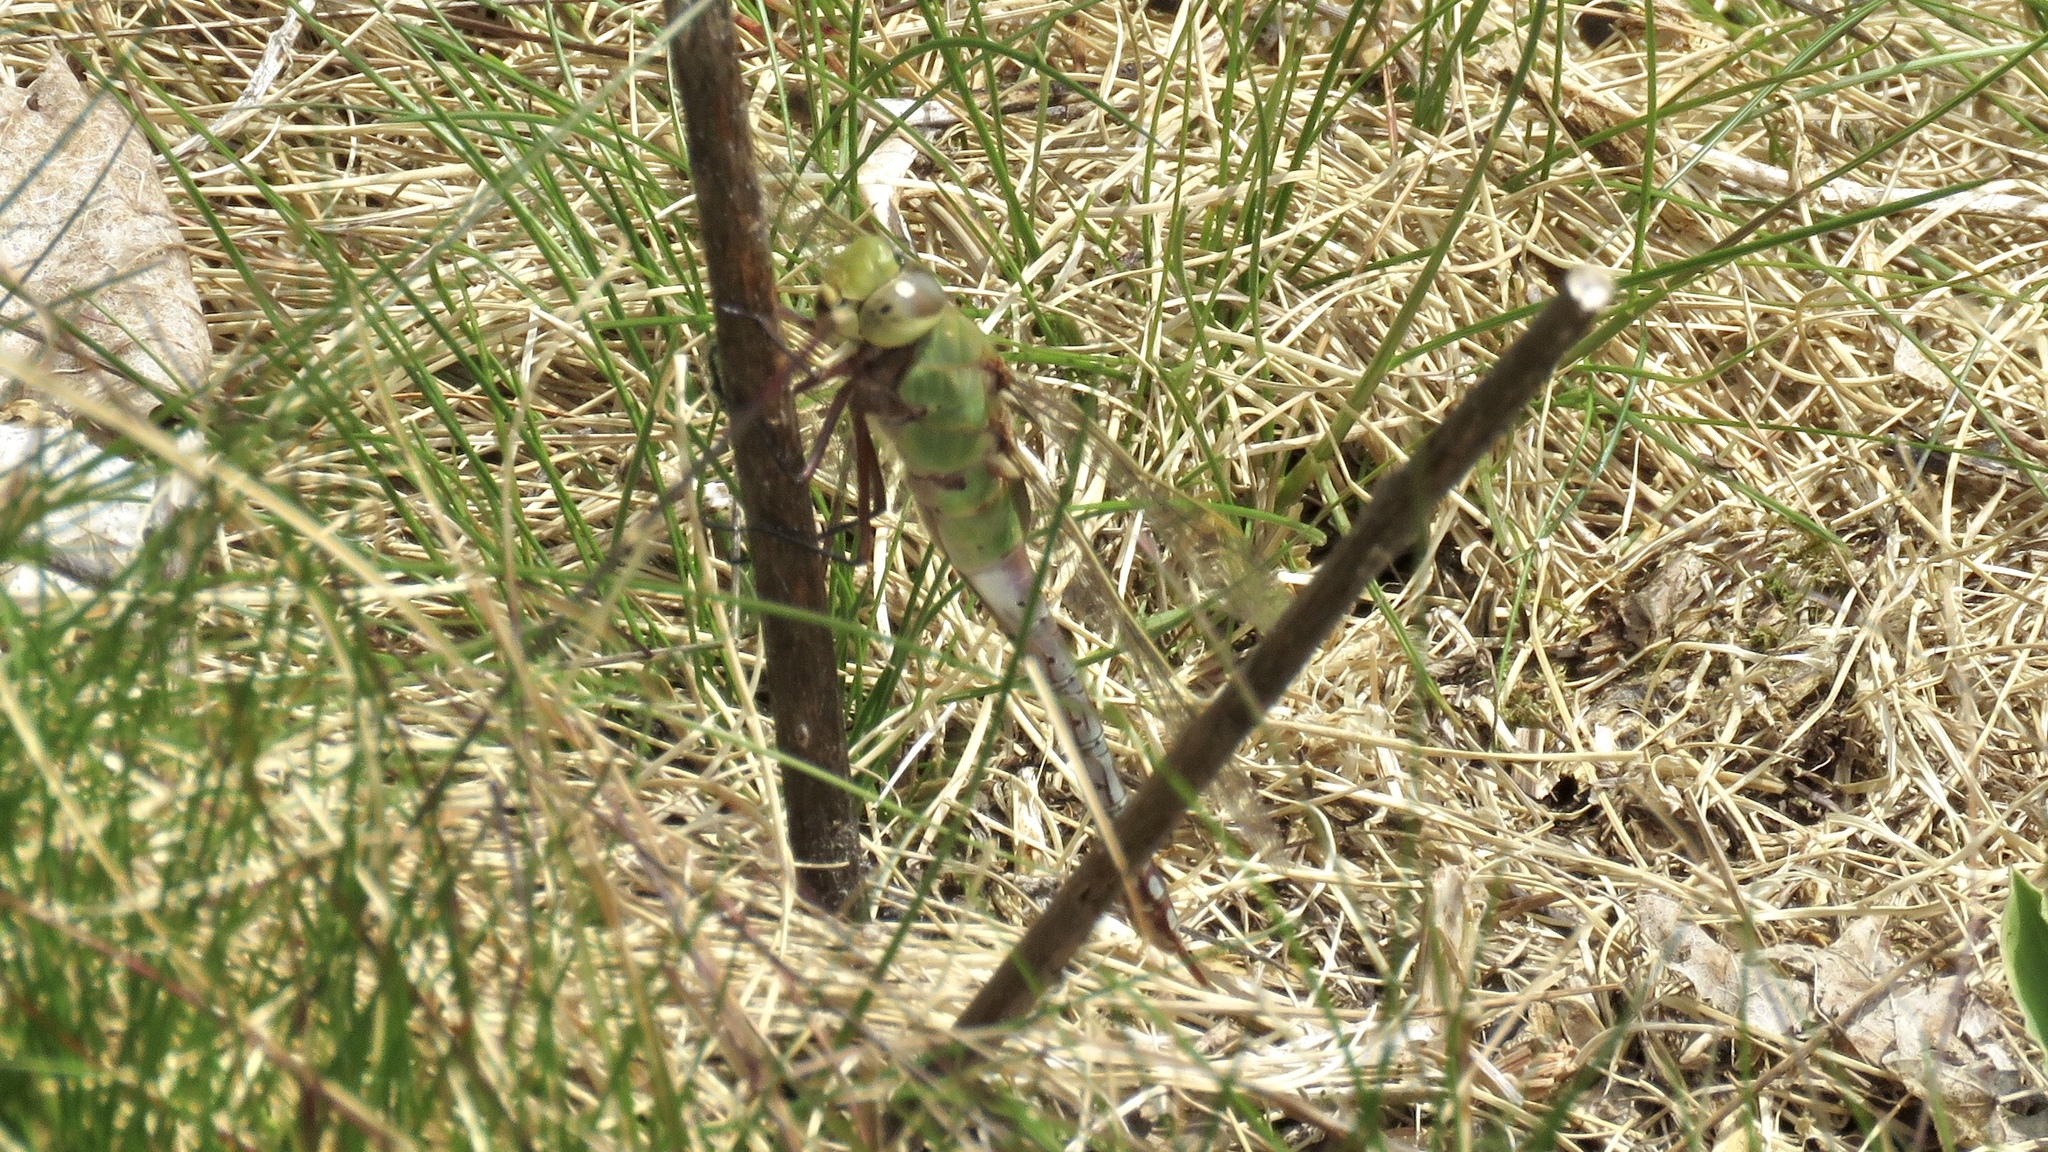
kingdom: Animalia
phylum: Arthropoda
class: Insecta
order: Odonata
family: Aeshnidae
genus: Anax
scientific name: Anax junius
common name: Common green darner
